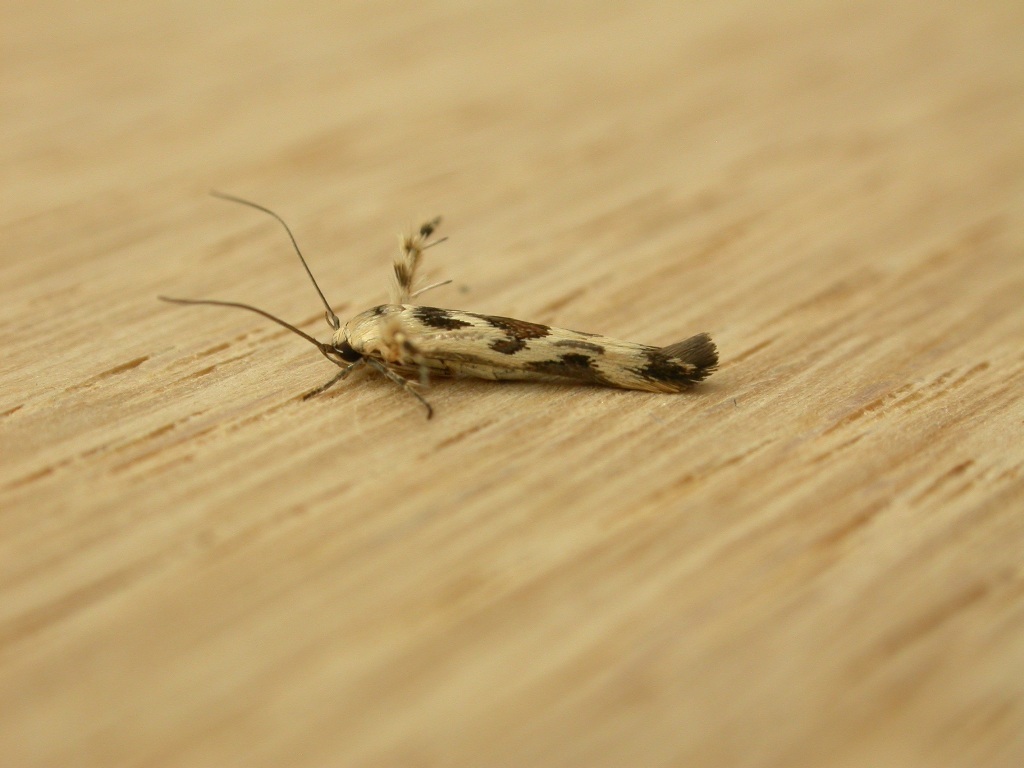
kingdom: Animalia
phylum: Arthropoda
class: Insecta
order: Lepidoptera
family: Stathmopodidae
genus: Stathmopoda
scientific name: Stathmopoda melanochra
